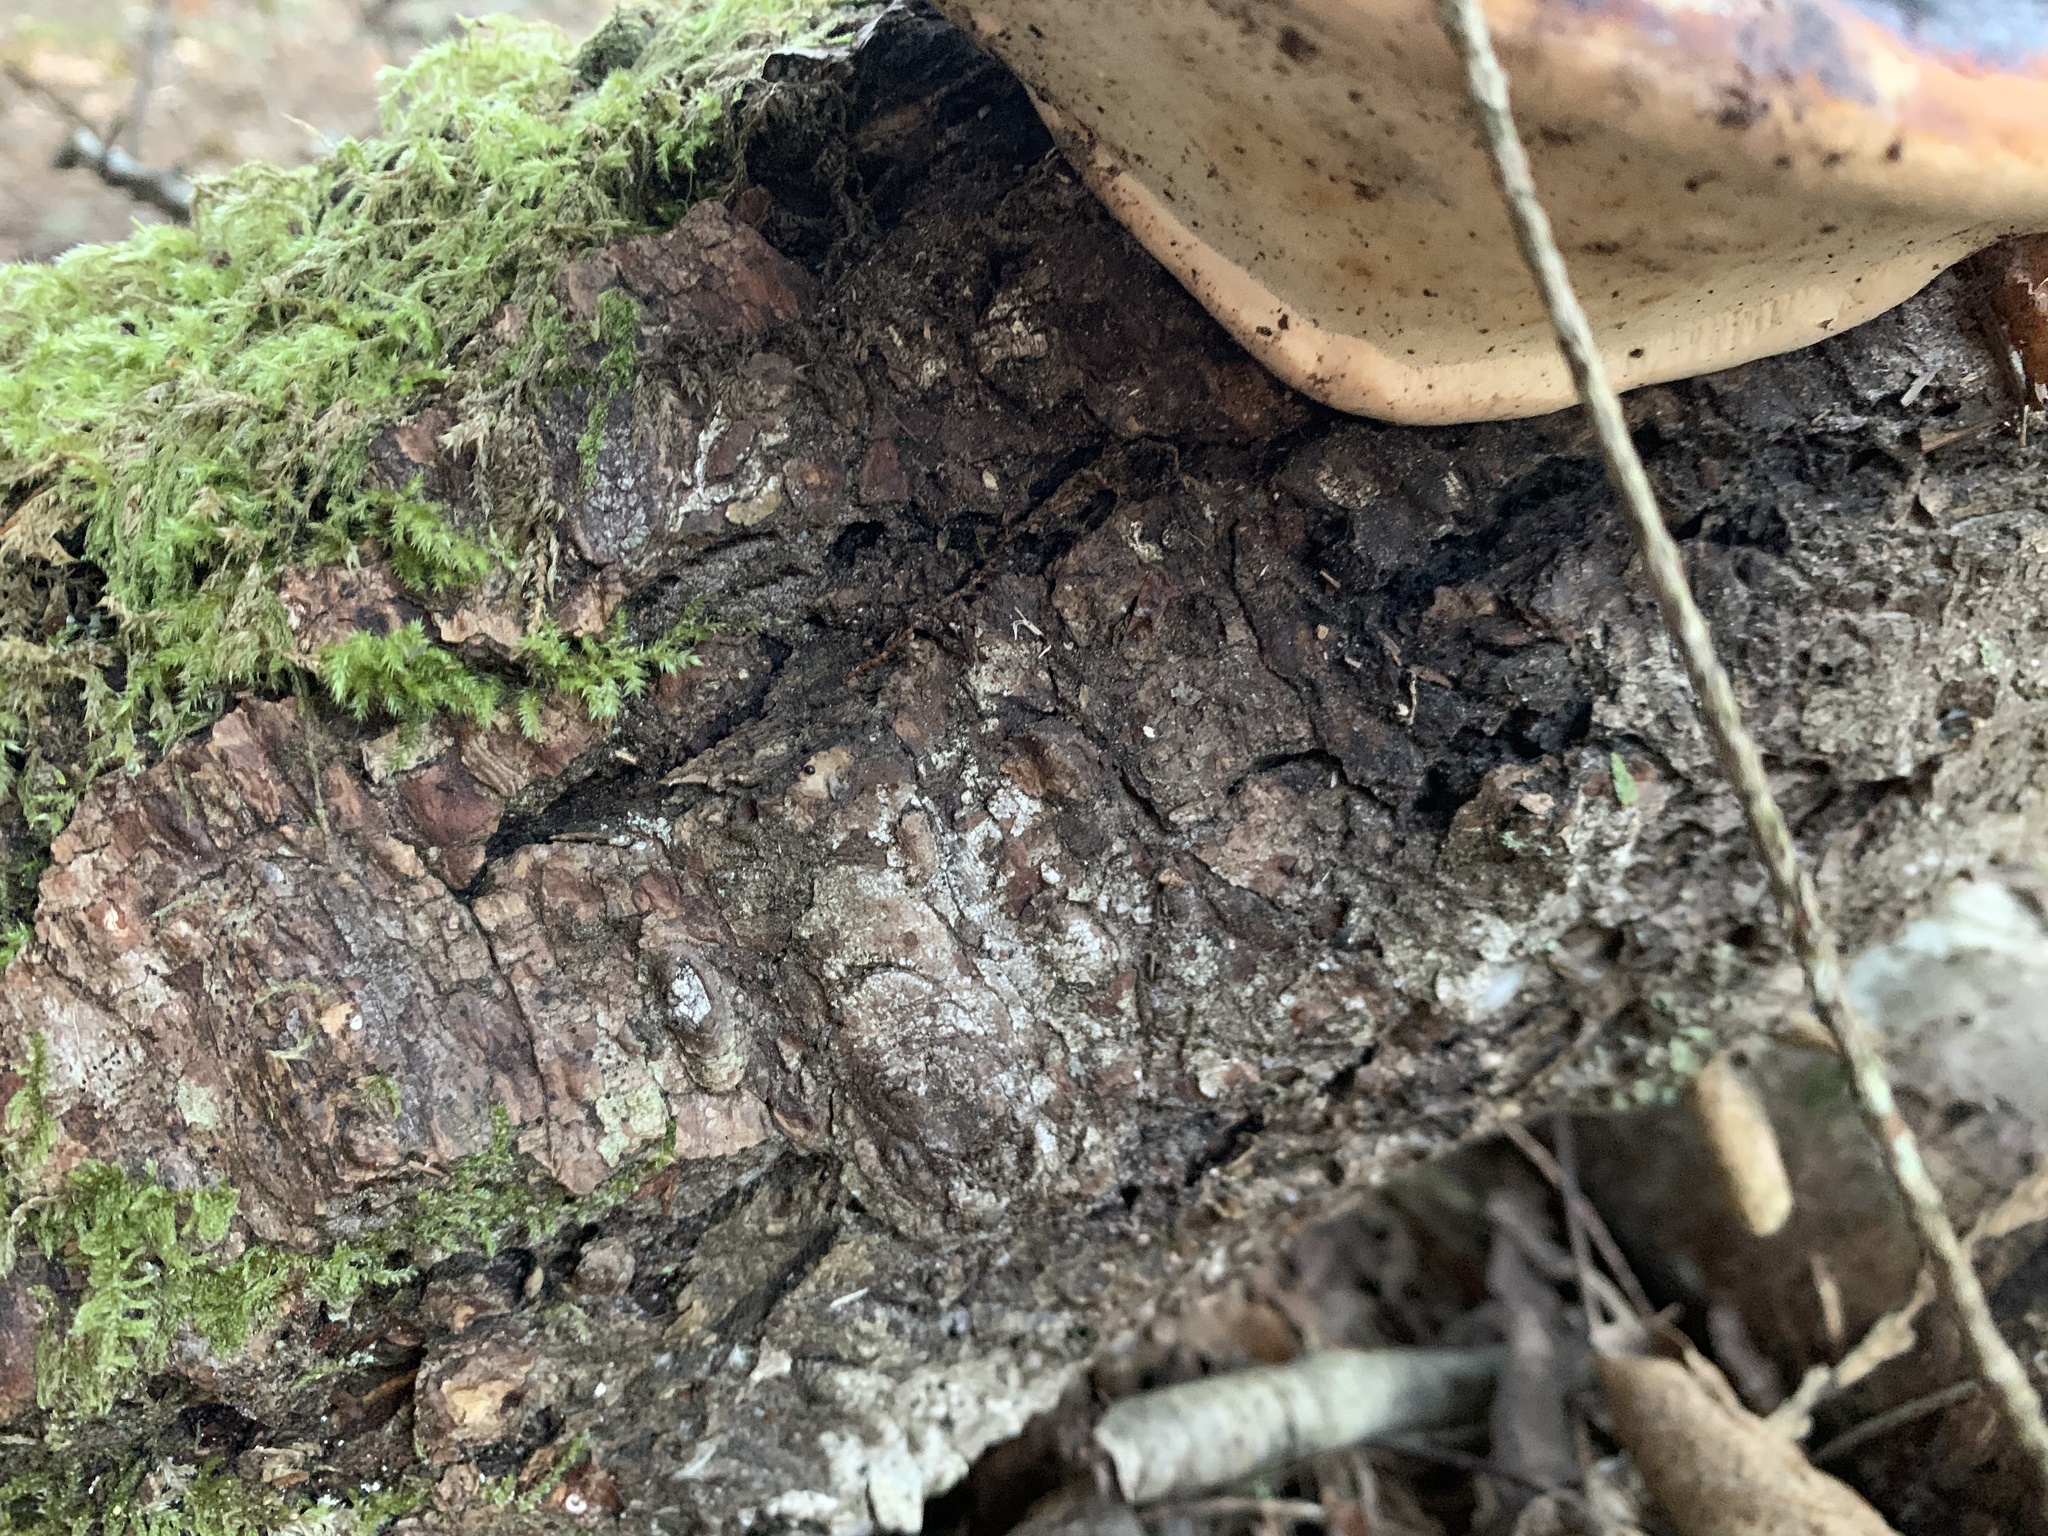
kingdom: Fungi
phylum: Basidiomycota
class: Agaricomycetes
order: Polyporales
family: Fomitopsidaceae
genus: Fomitopsis
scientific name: Fomitopsis mounceae
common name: Northern red belt
